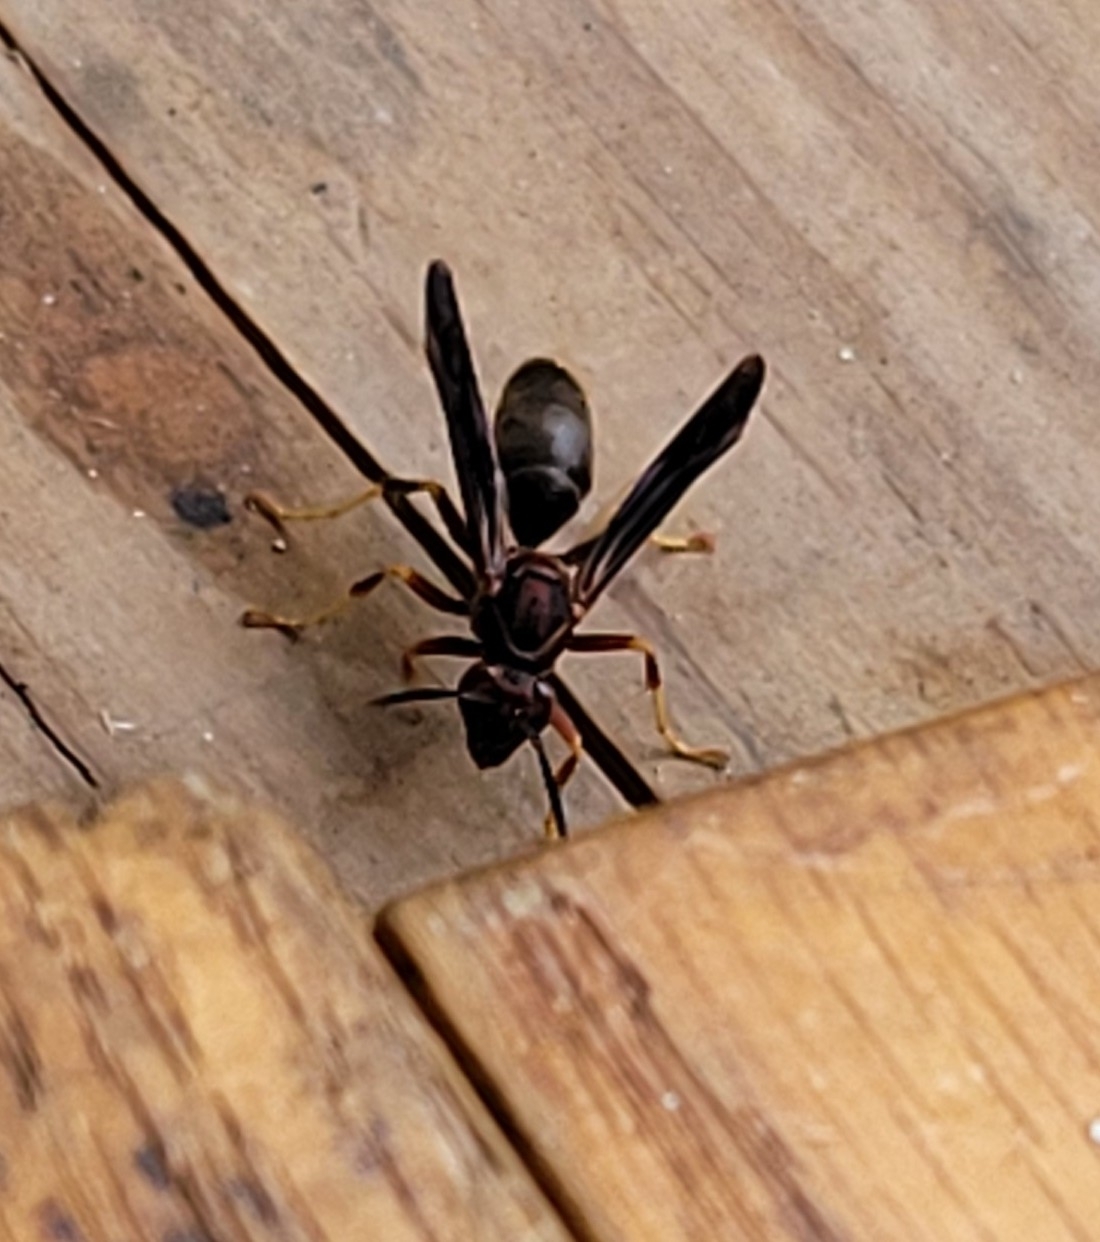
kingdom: Animalia
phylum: Arthropoda
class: Insecta
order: Hymenoptera
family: Eumenidae
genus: Polistes
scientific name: Polistes metricus
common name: Metric paper wasp
